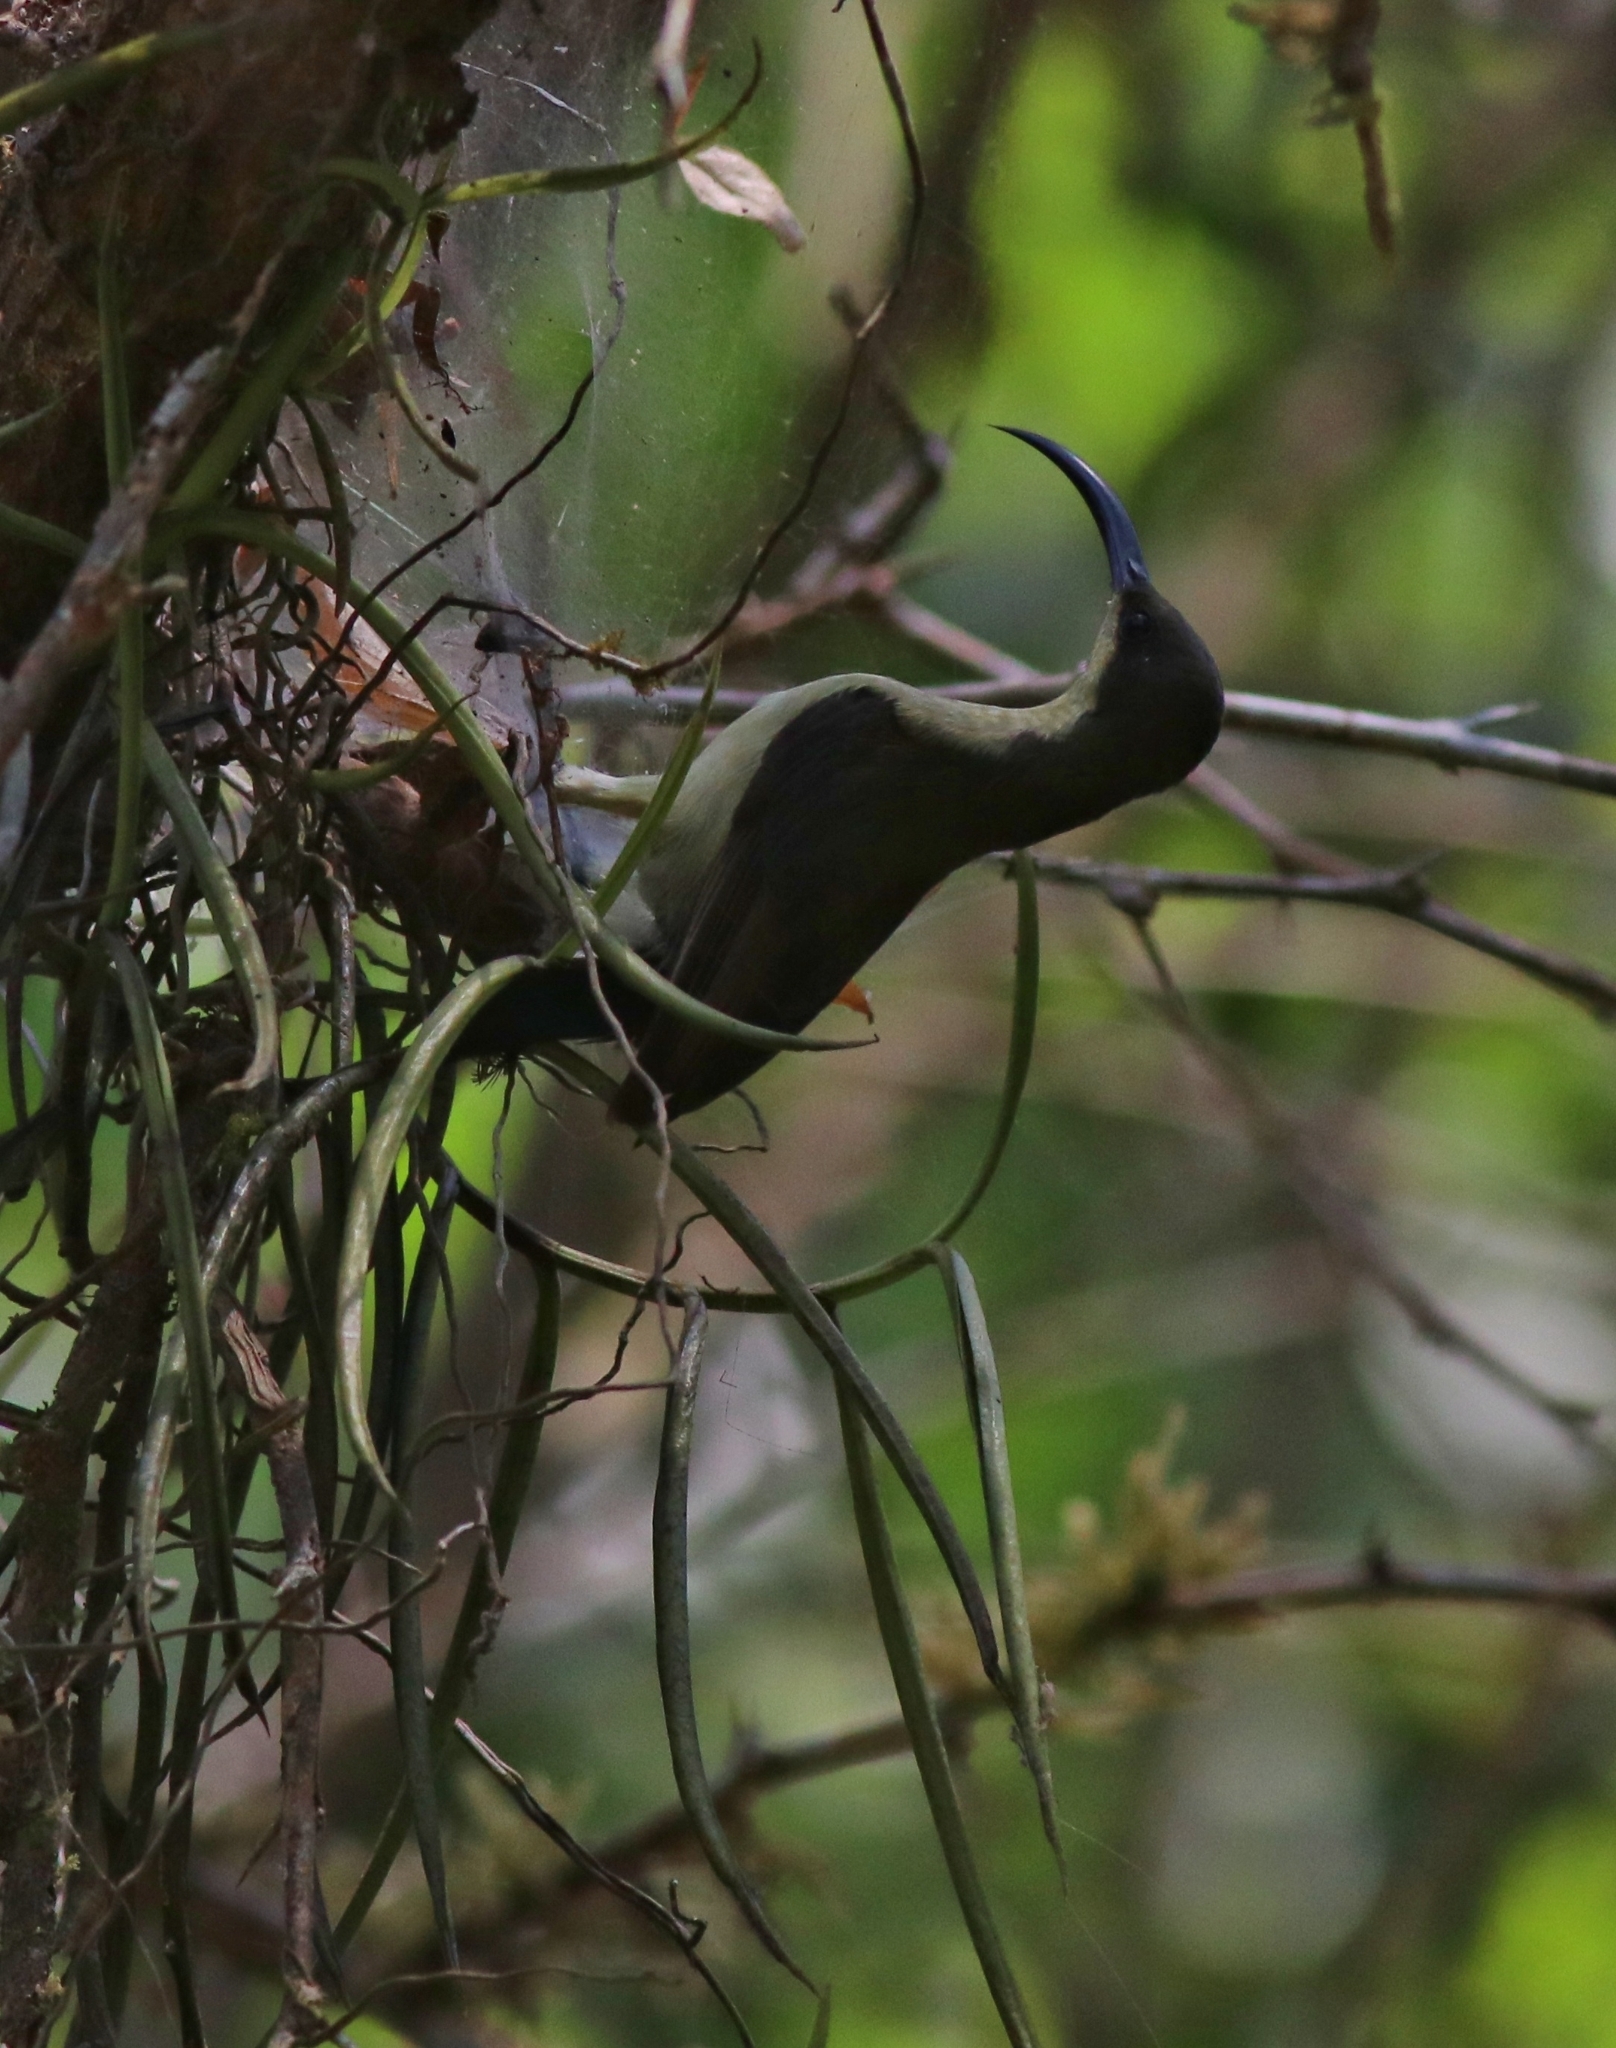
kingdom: Animalia
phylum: Chordata
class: Aves
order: Passeriformes
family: Nectariniidae
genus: Cinnyris
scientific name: Cinnyris lotenius
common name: Loten's sunbird
